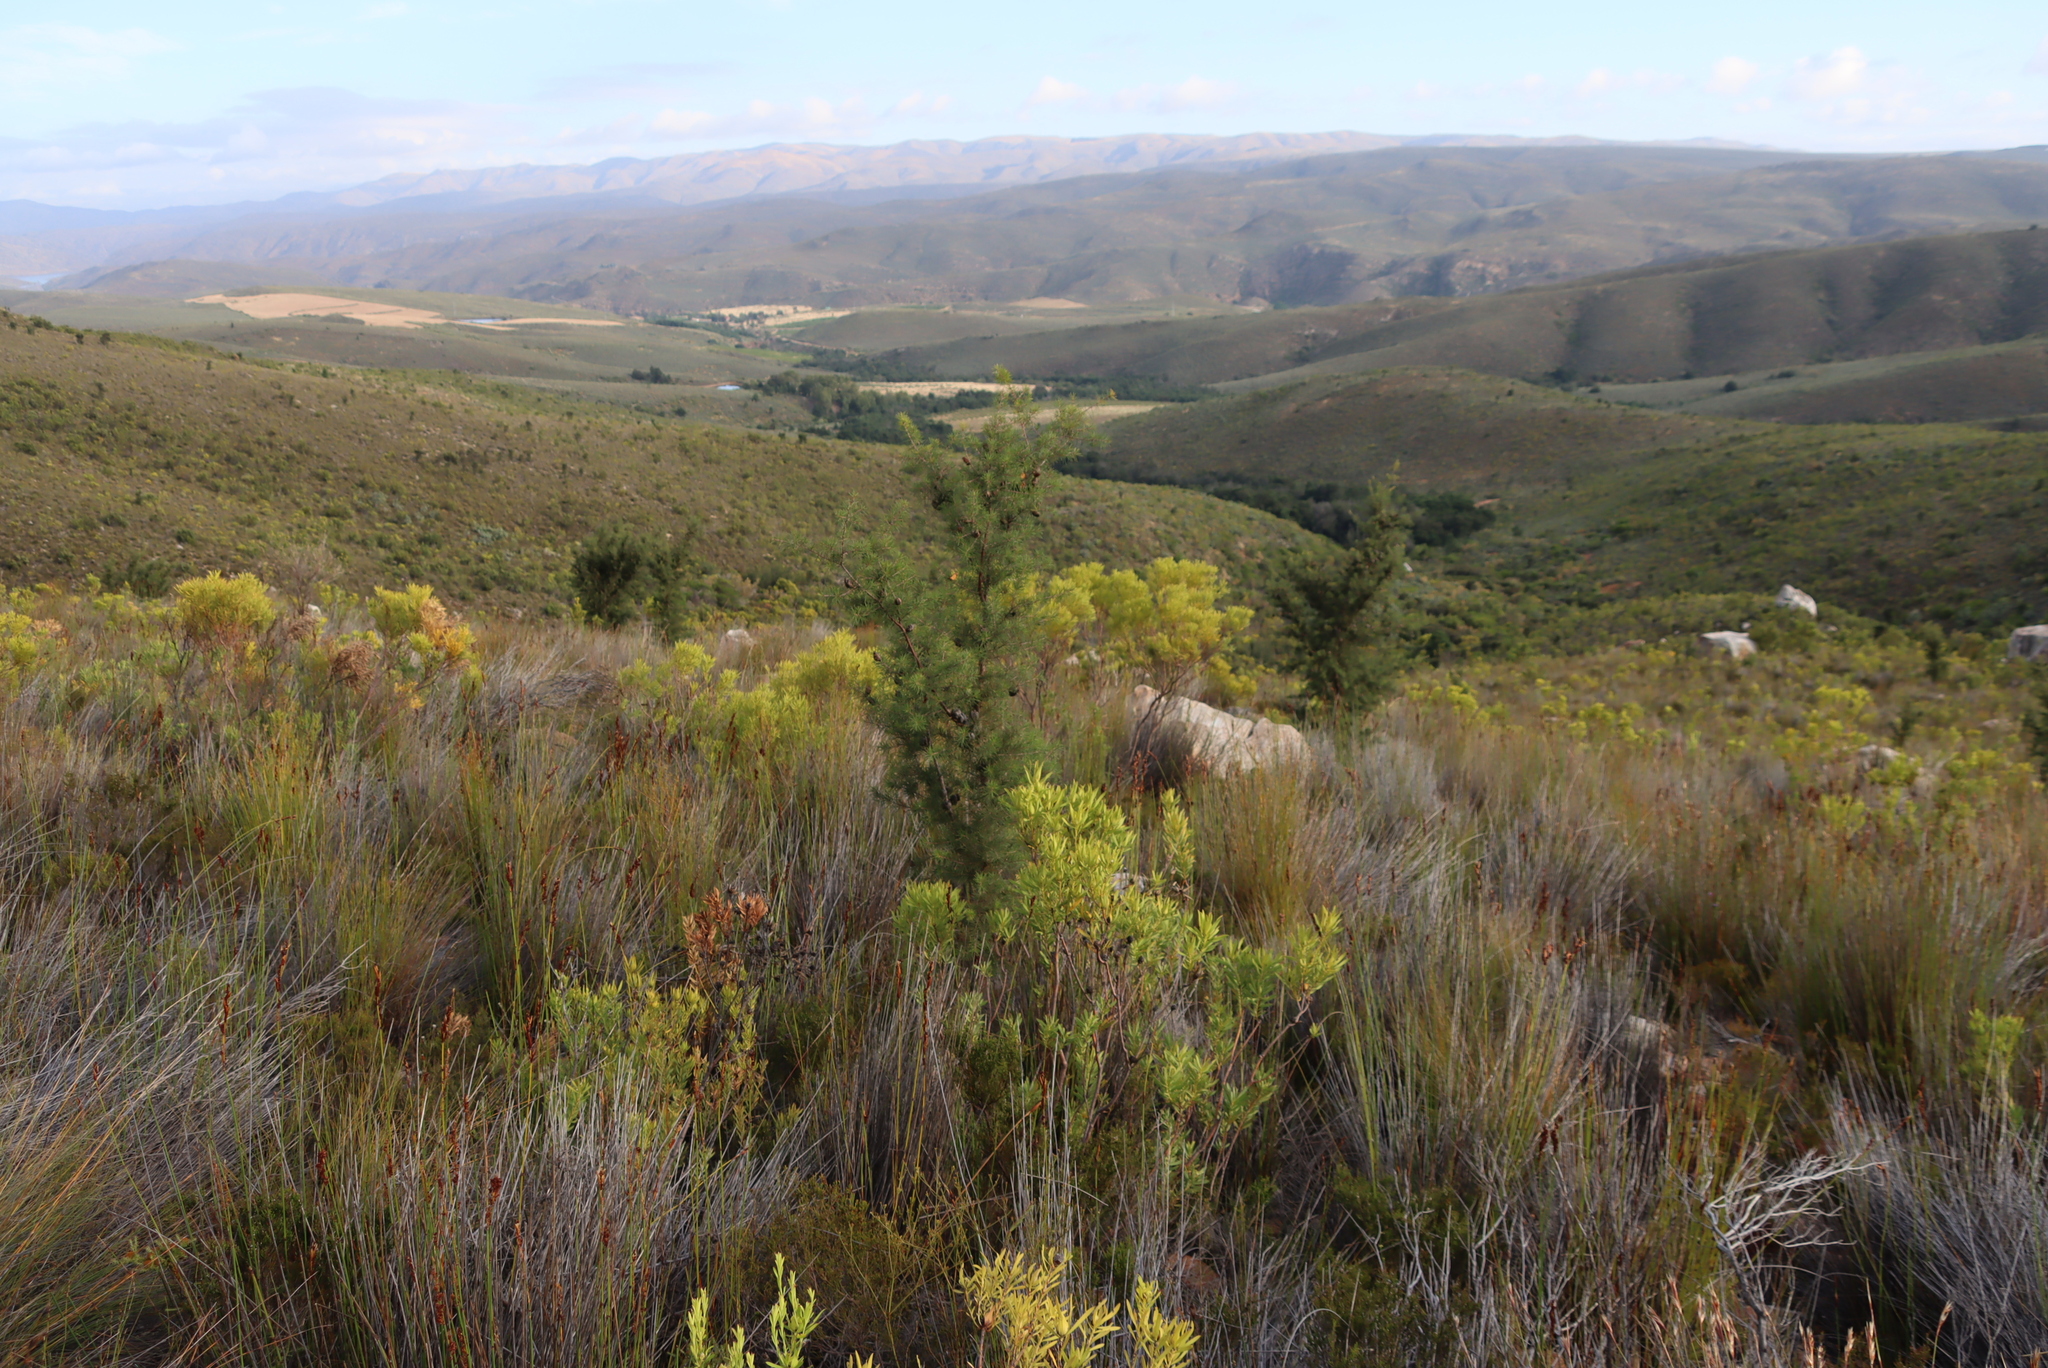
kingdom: Plantae
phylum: Tracheophyta
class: Magnoliopsida
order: Proteales
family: Proteaceae
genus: Leucadendron
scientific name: Leucadendron salignum
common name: Common sunshine conebush
